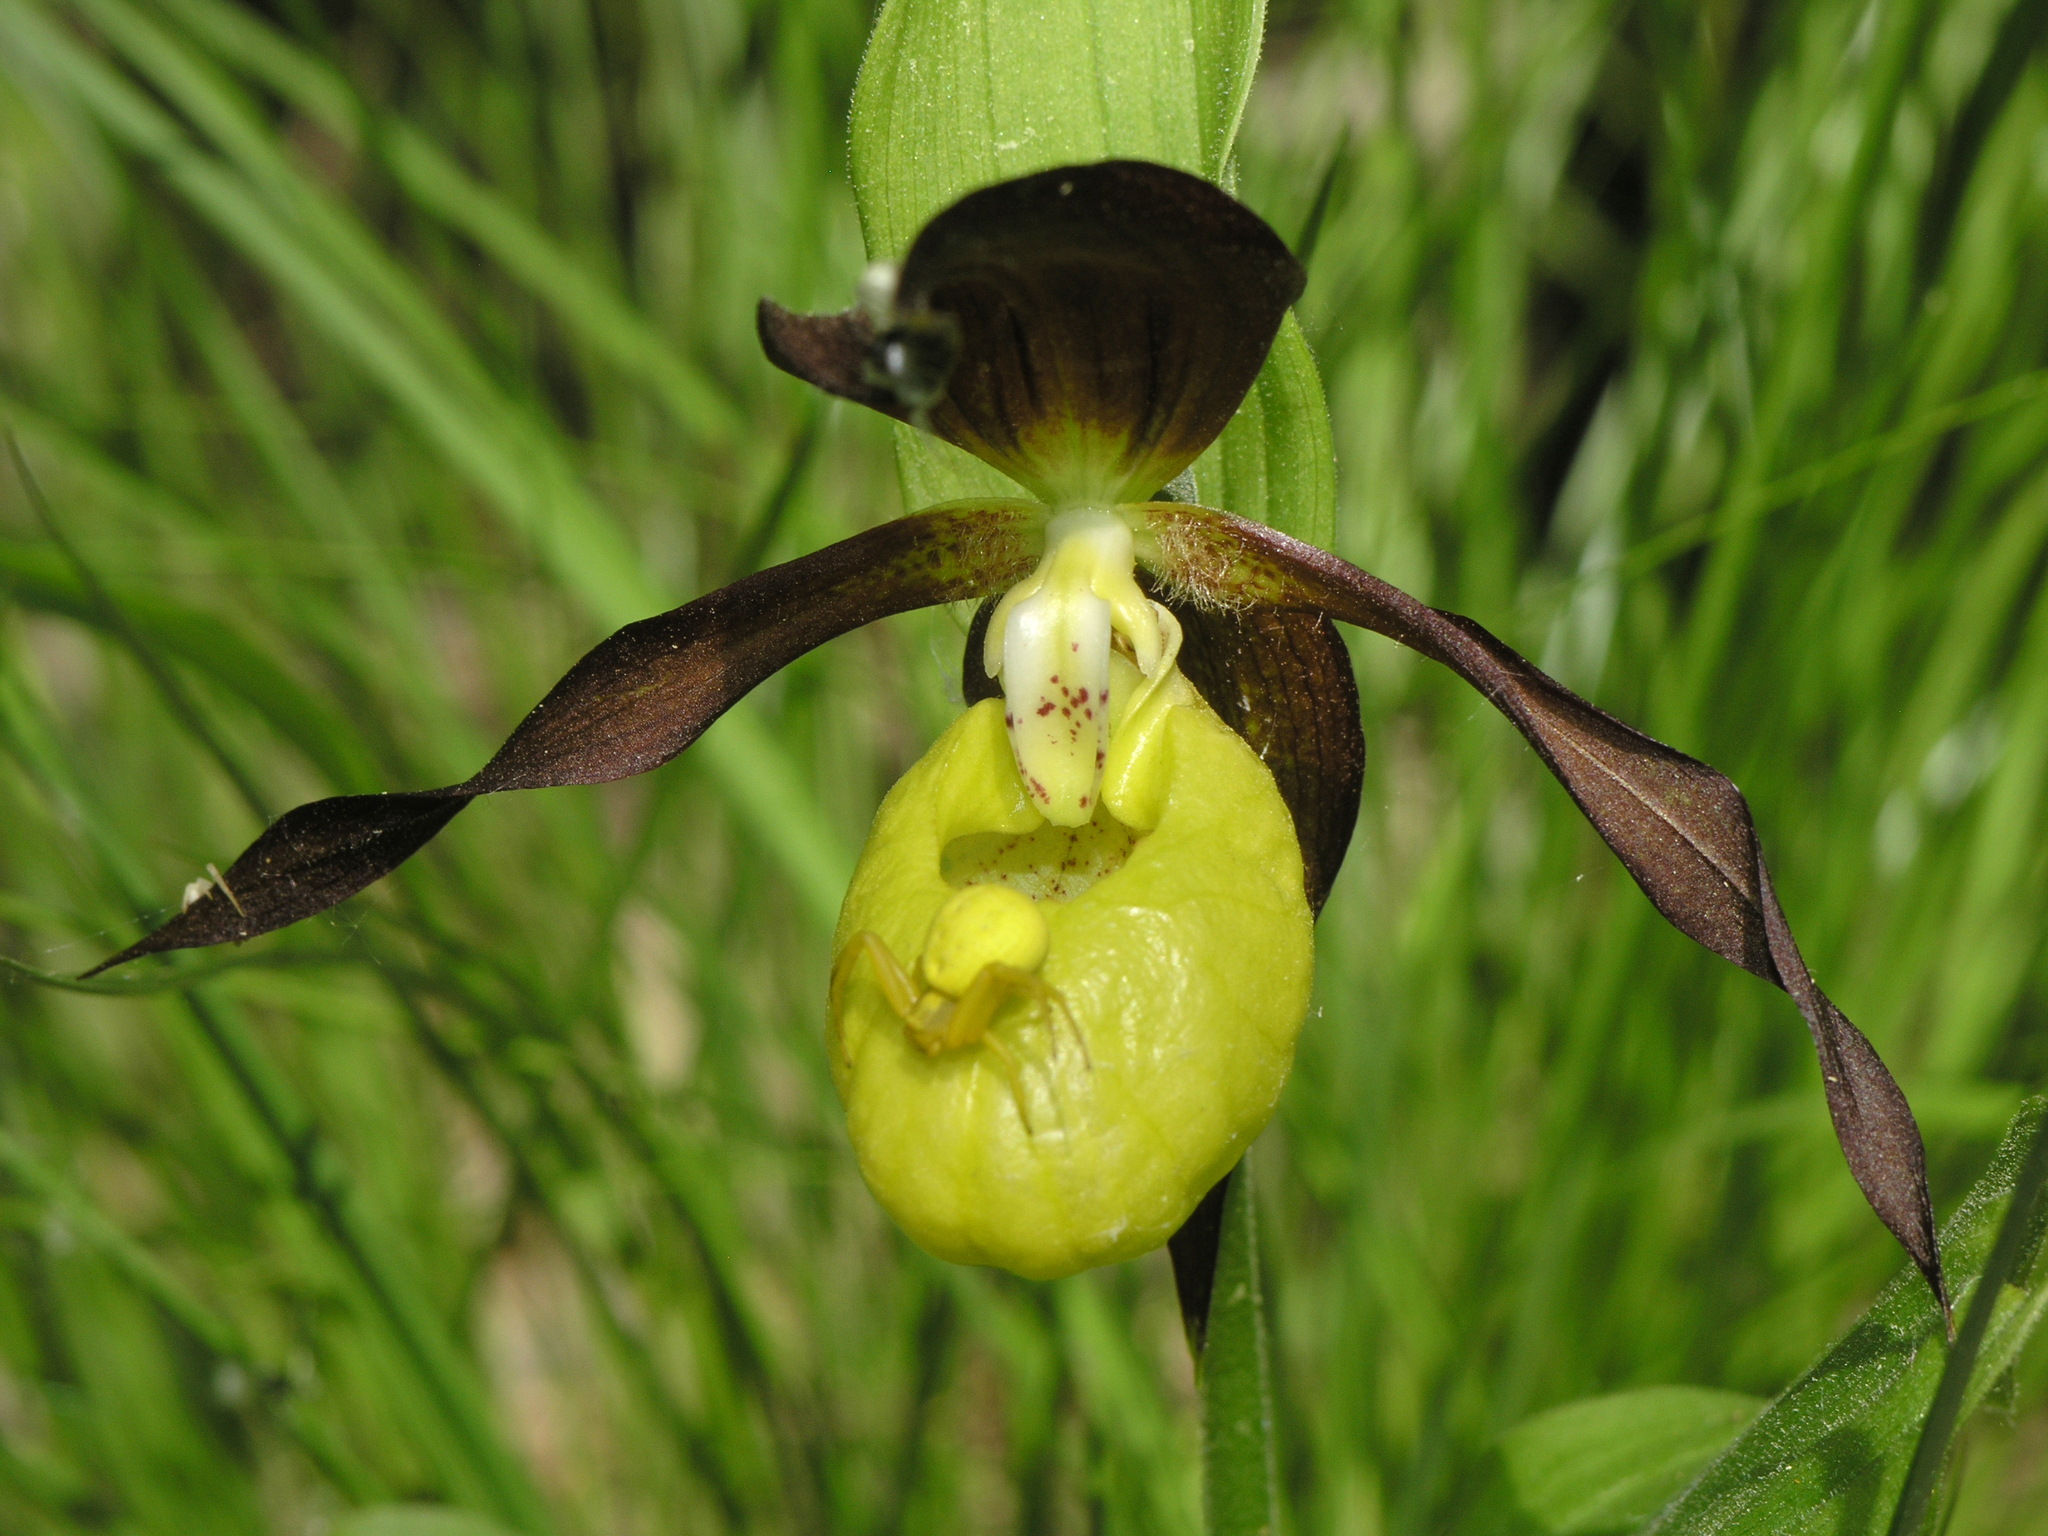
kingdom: Plantae
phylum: Tracheophyta
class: Liliopsida
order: Asparagales
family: Orchidaceae
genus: Cypripedium
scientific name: Cypripedium calceolus
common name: Lady's-slipper
